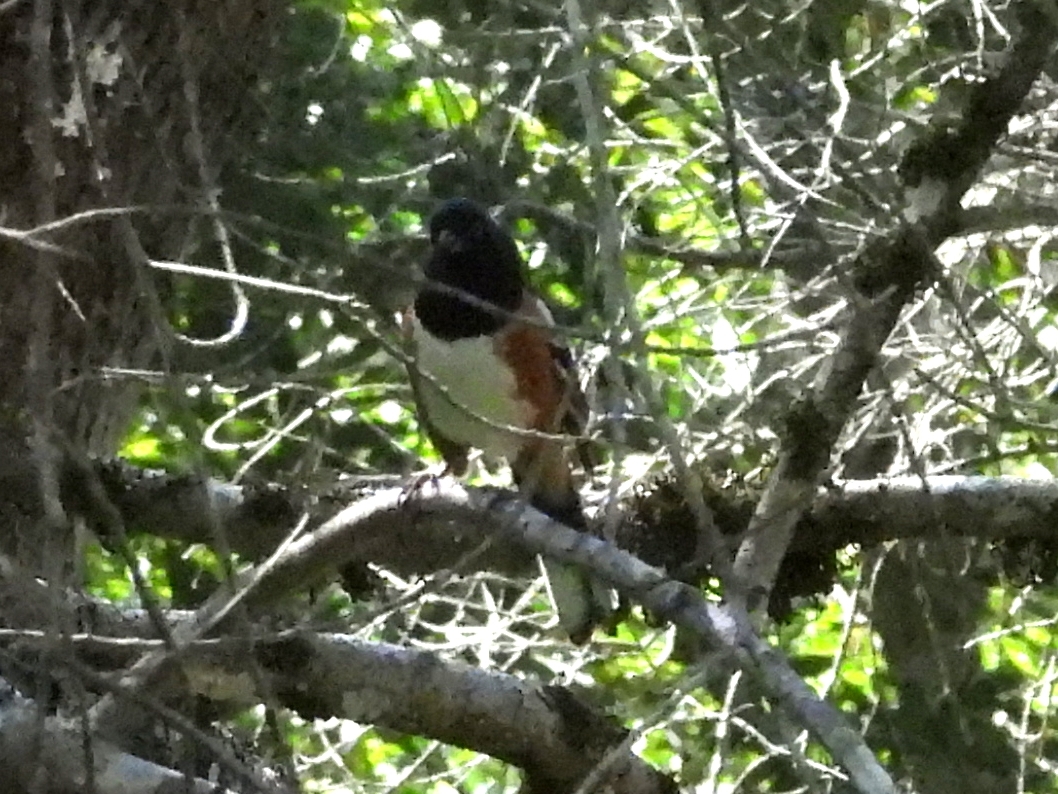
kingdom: Animalia
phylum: Chordata
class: Aves
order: Passeriformes
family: Passerellidae
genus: Pipilo
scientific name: Pipilo maculatus
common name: Spotted towhee
